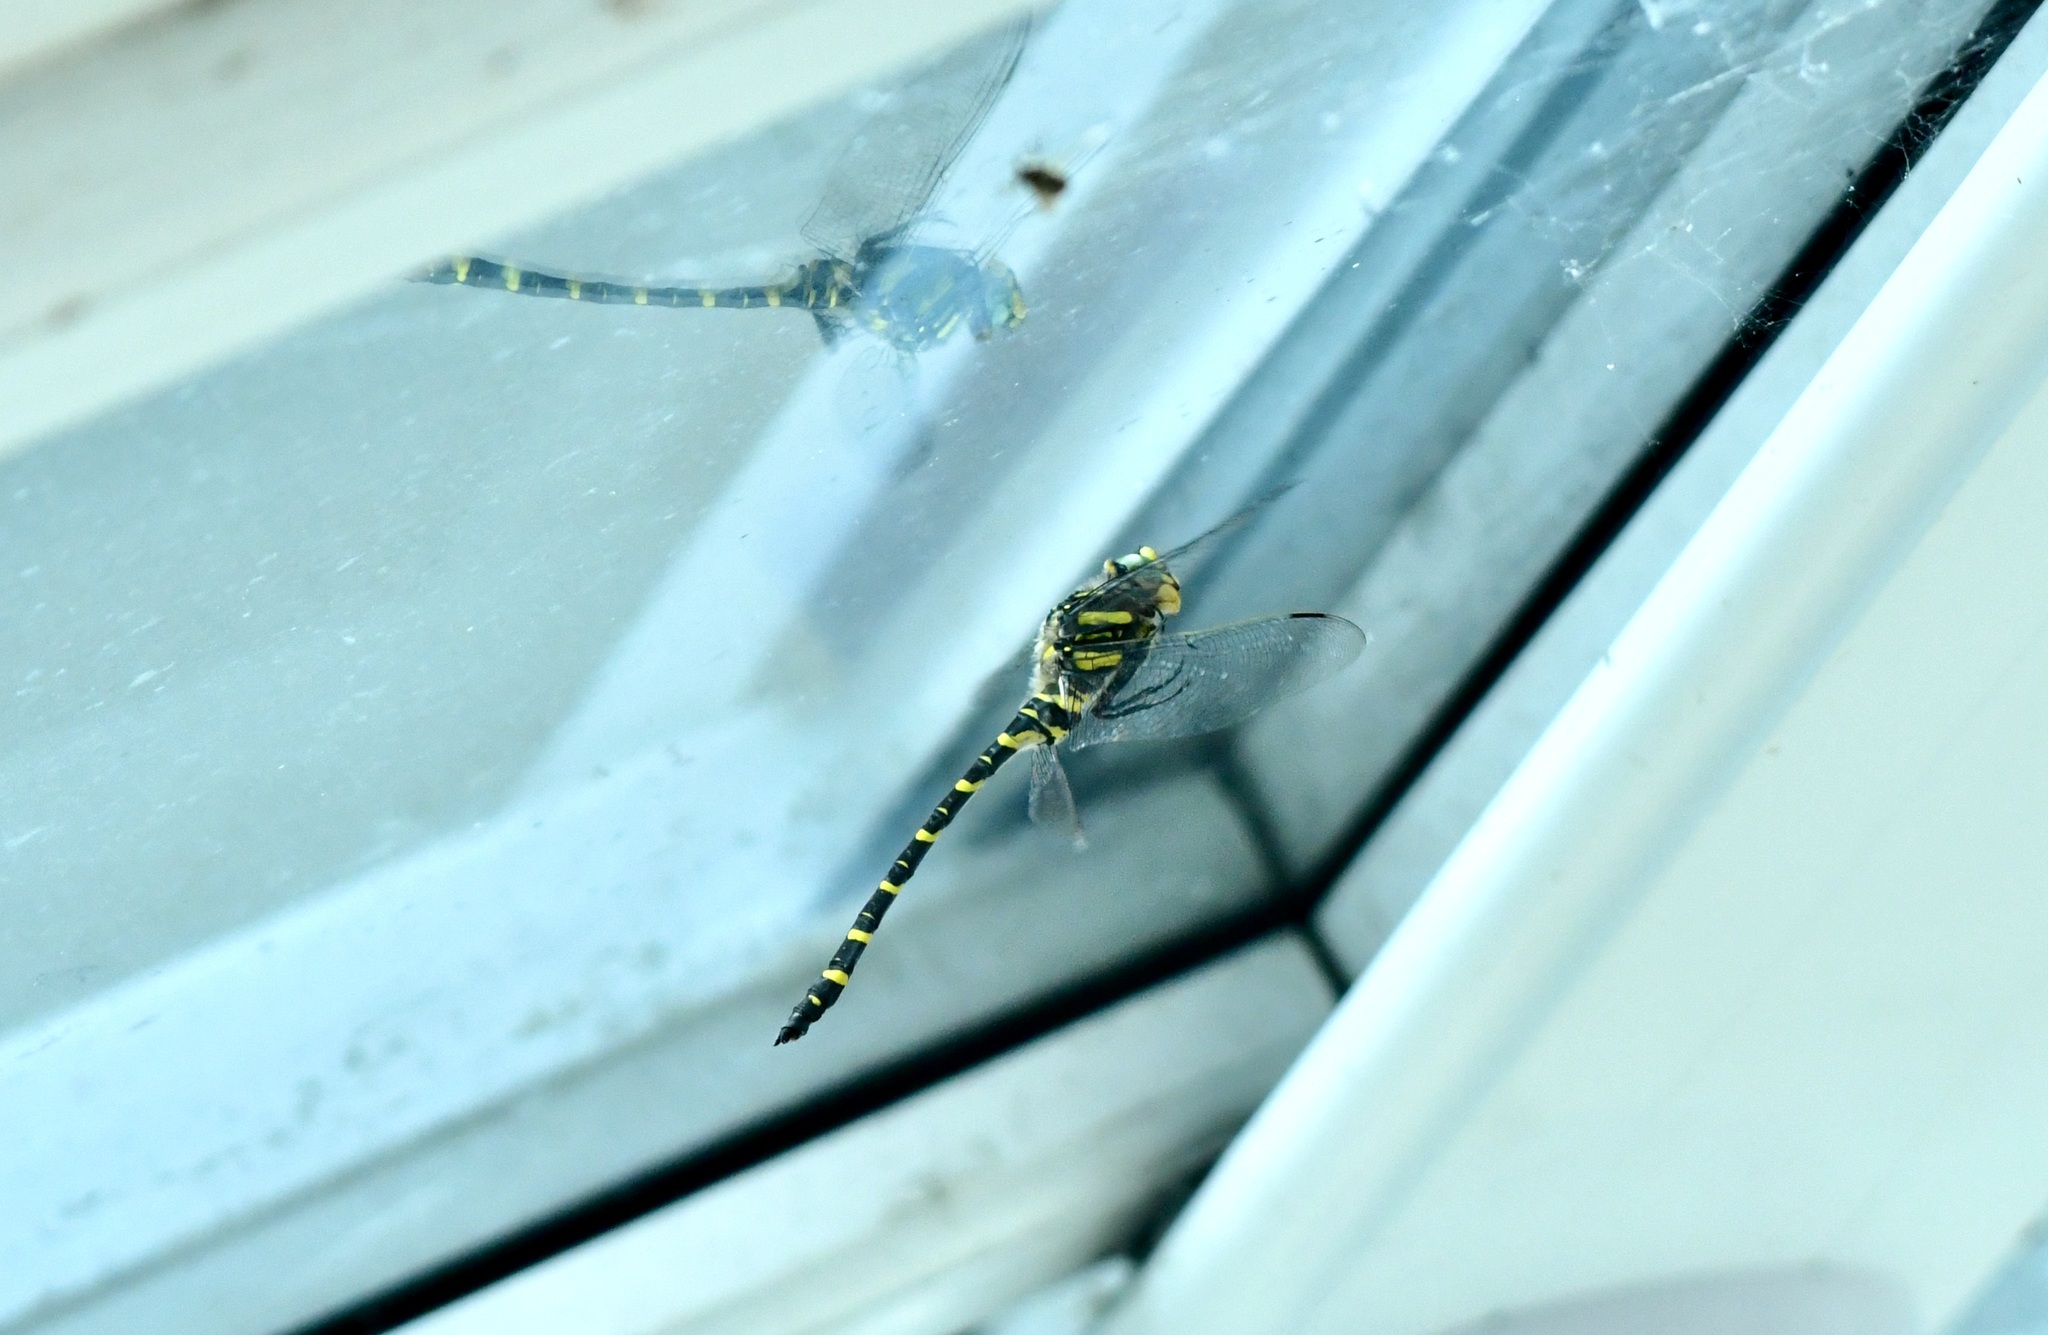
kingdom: Animalia
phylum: Arthropoda
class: Insecta
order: Odonata
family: Cordulegastridae
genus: Cordulegaster
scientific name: Cordulegaster boltonii
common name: Golden-ringed dragonfly
